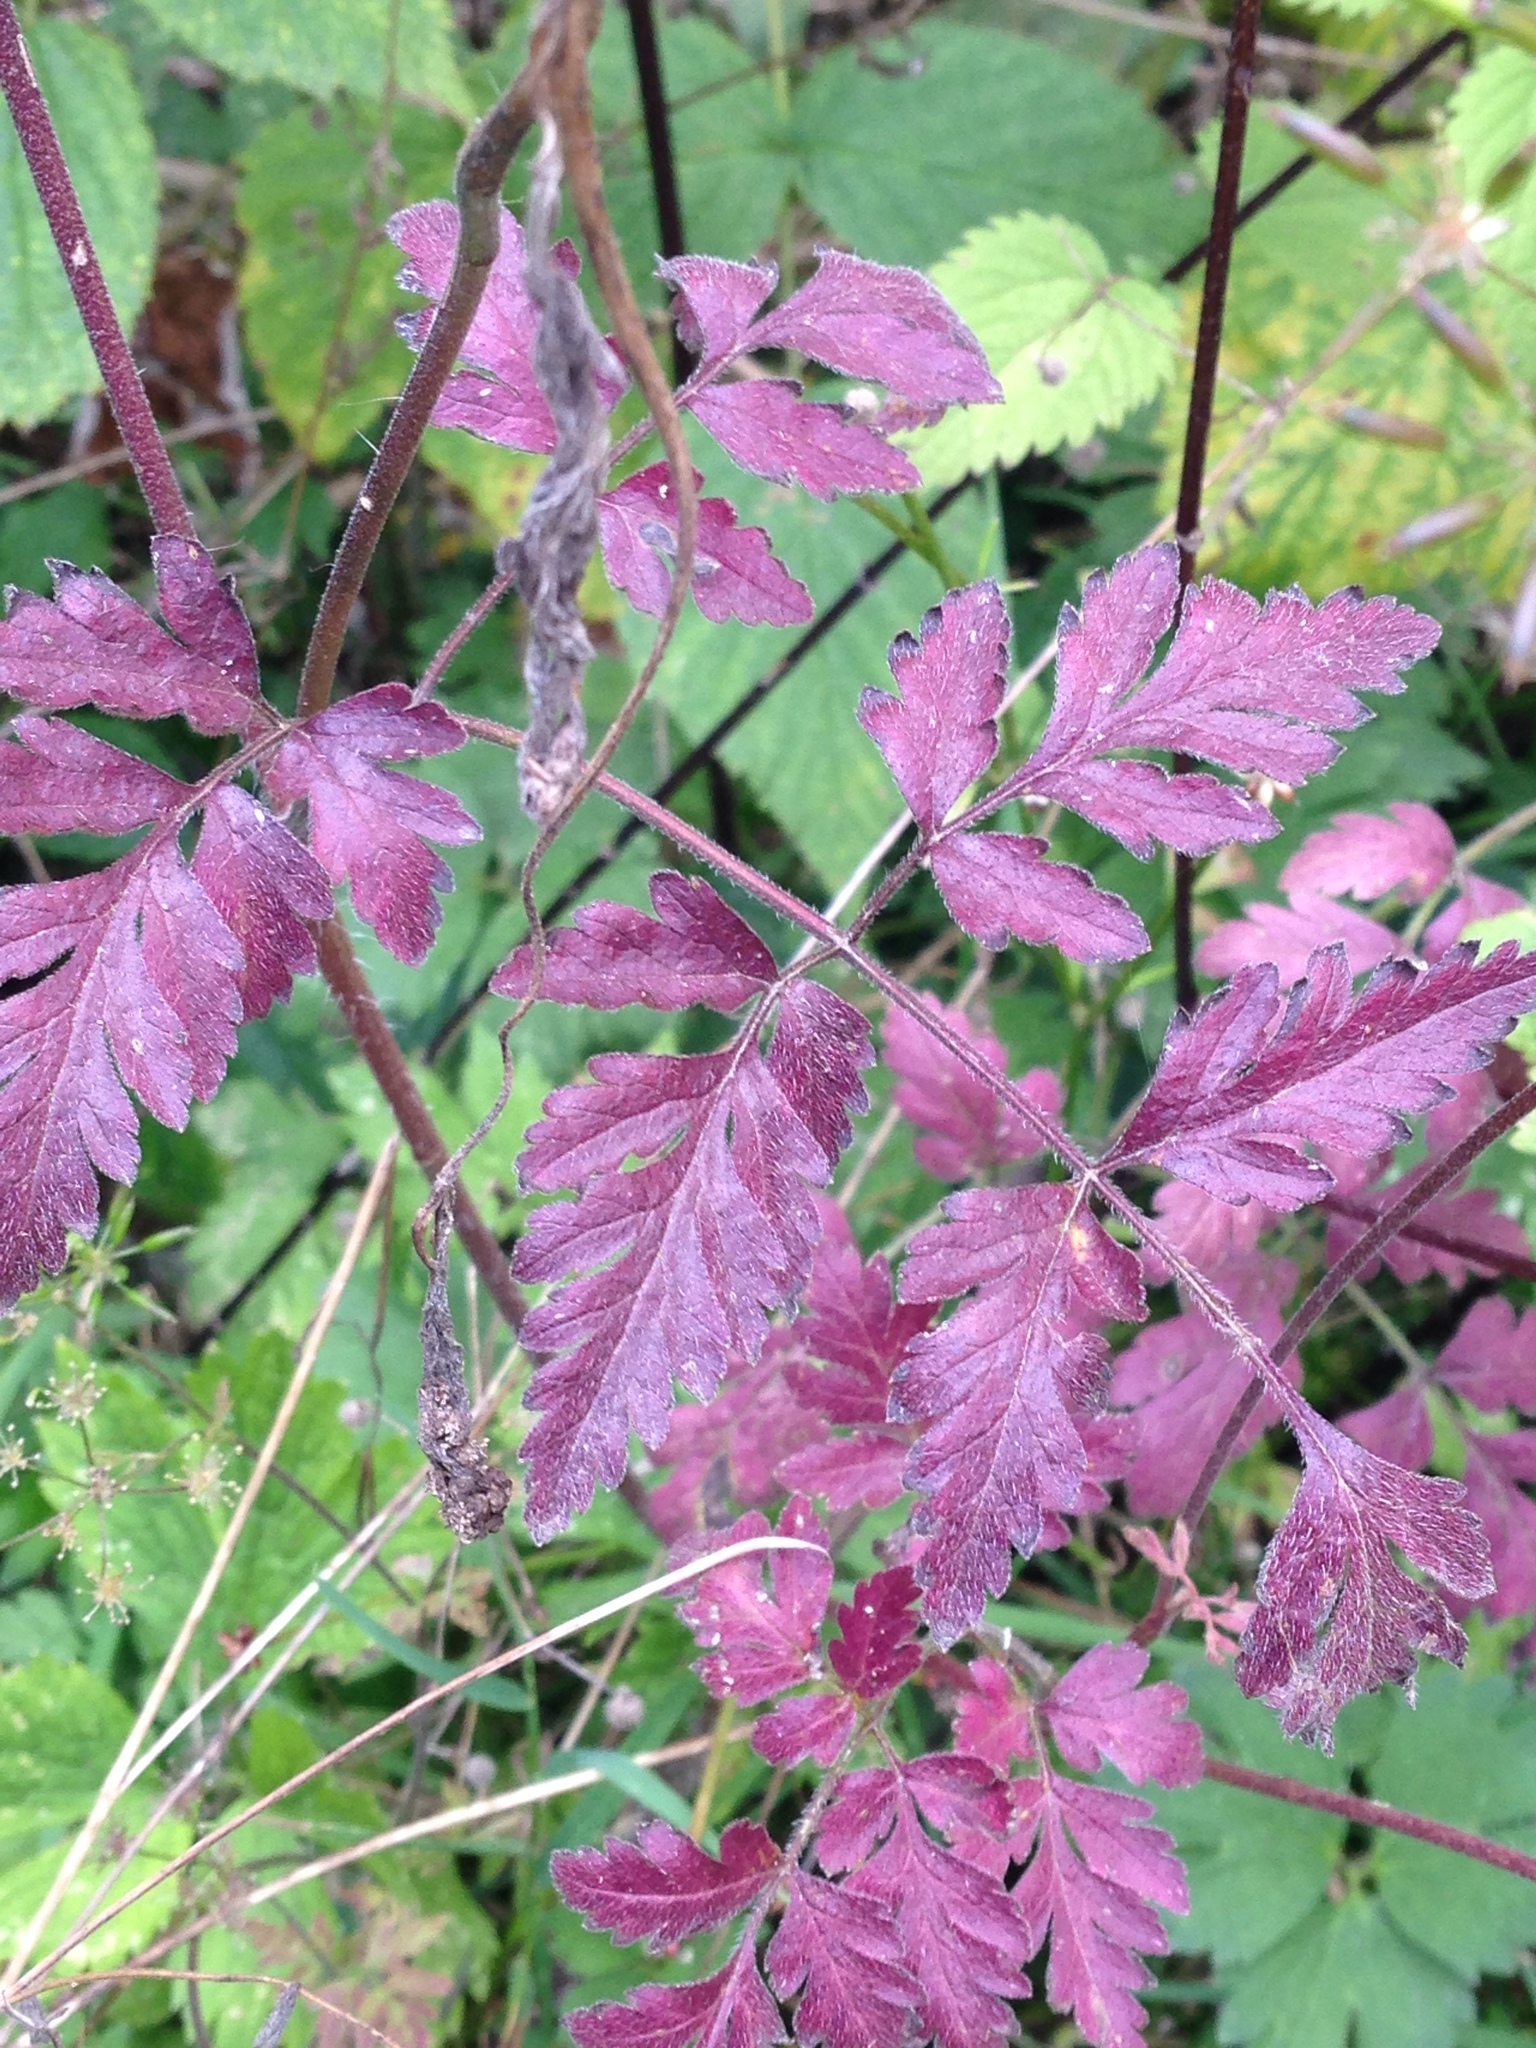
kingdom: Plantae
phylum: Tracheophyta
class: Magnoliopsida
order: Apiales
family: Apiaceae
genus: Chaerophyllum
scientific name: Chaerophyllum temulum
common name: Rough chervil
